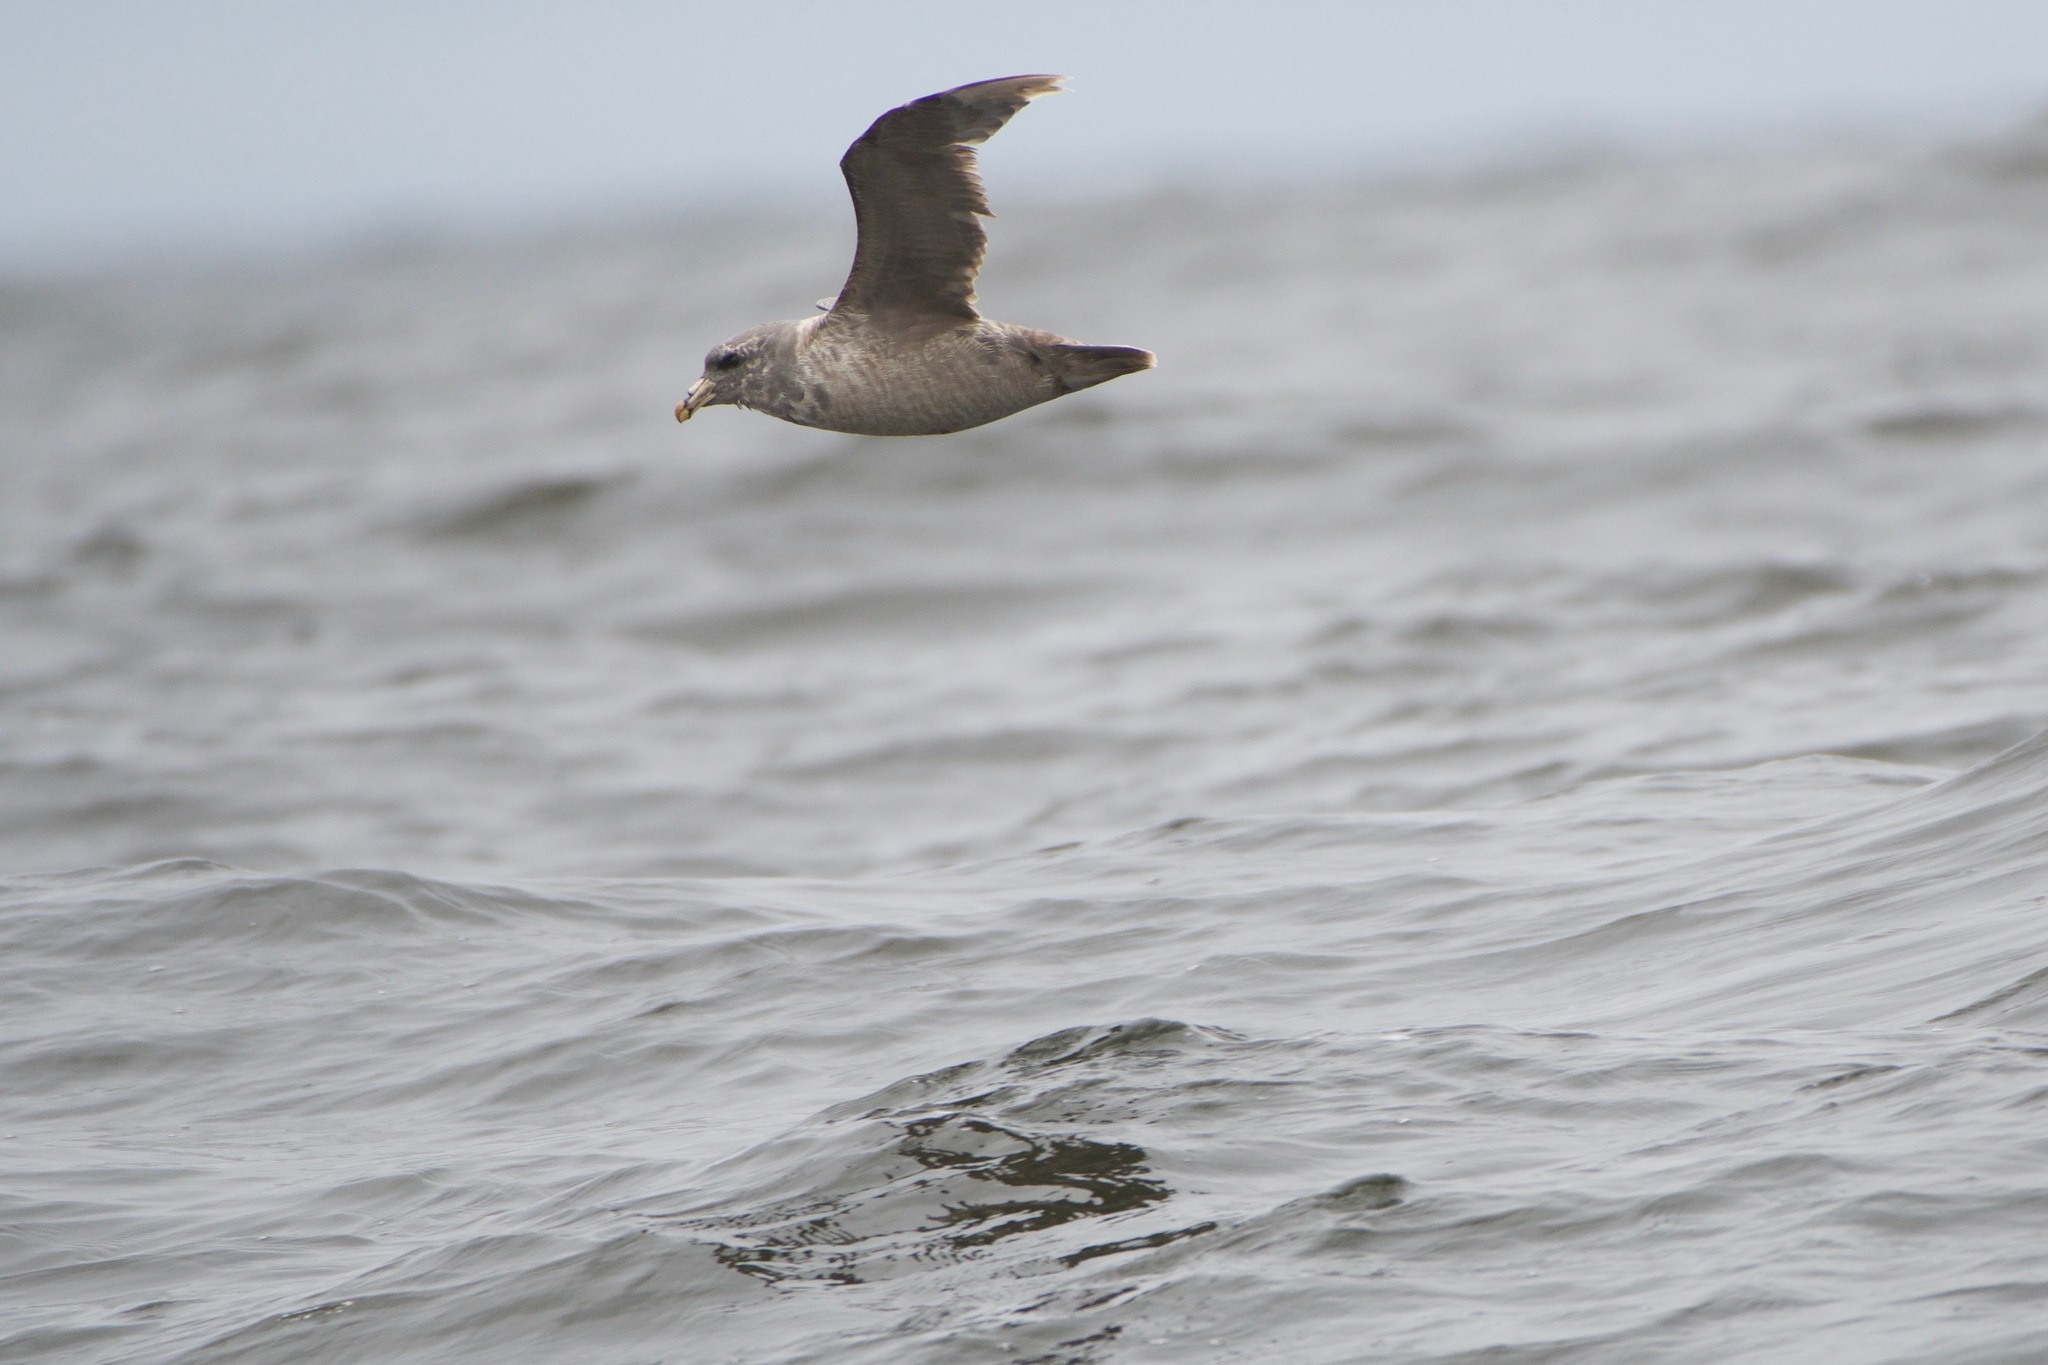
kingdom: Animalia
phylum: Chordata
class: Aves
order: Procellariiformes
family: Procellariidae
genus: Fulmarus
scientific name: Fulmarus glacialis
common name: Northern fulmar
